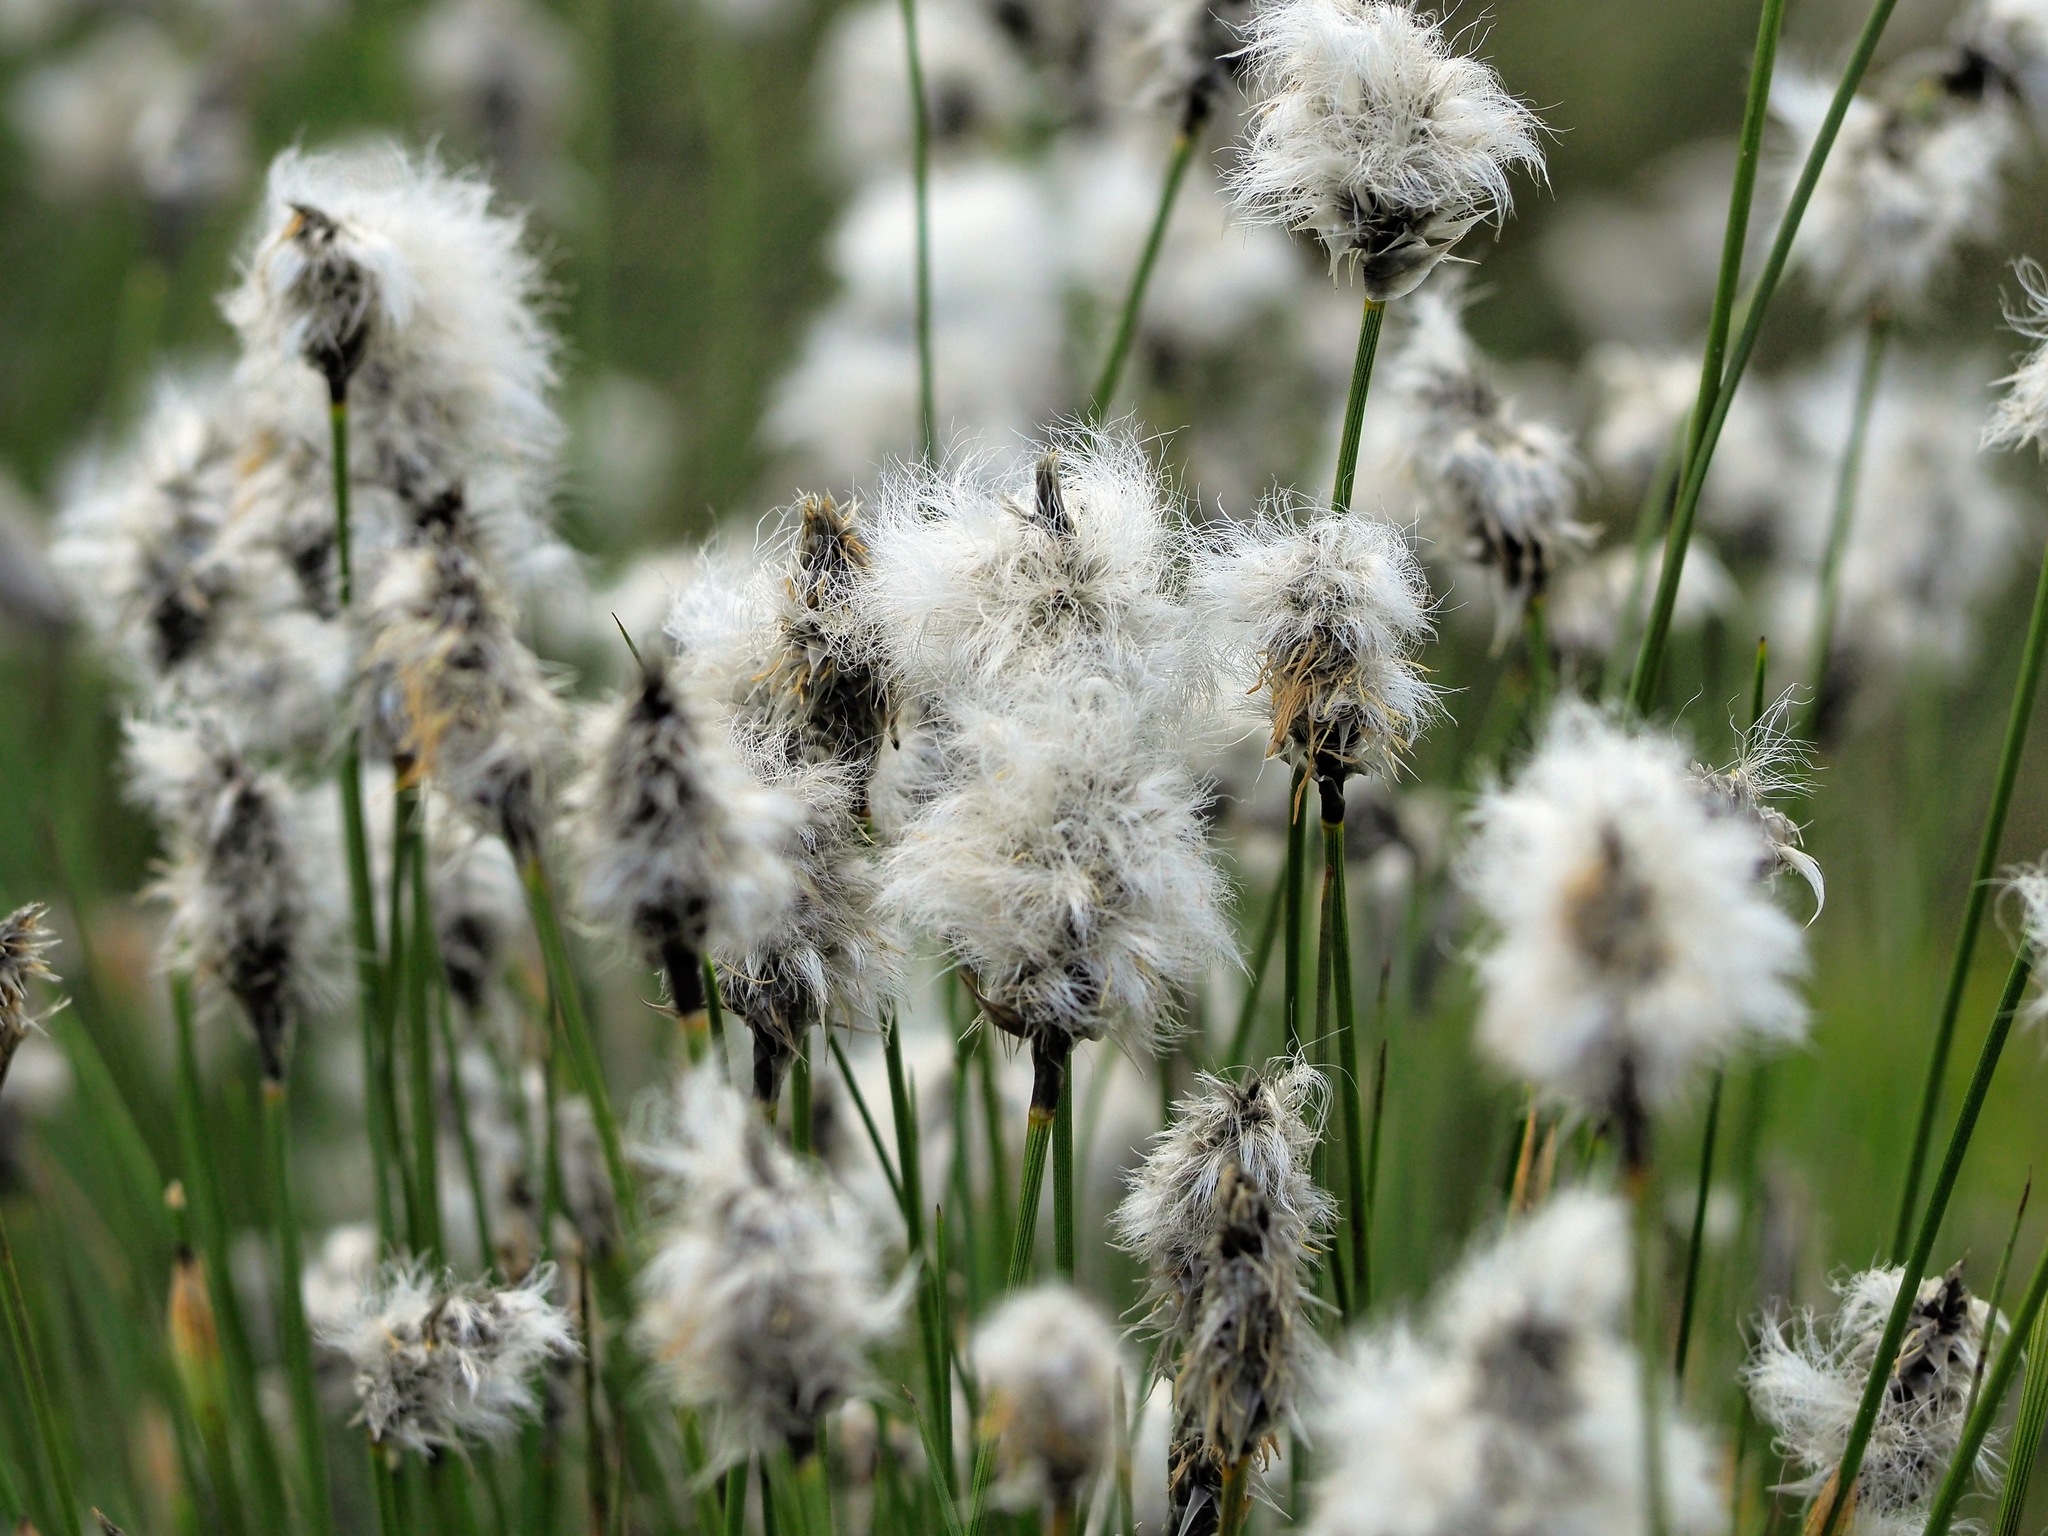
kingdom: Plantae
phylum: Tracheophyta
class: Liliopsida
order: Poales
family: Cyperaceae
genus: Eriophorum
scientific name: Eriophorum vaginatum
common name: Hare's-tail cottongrass
